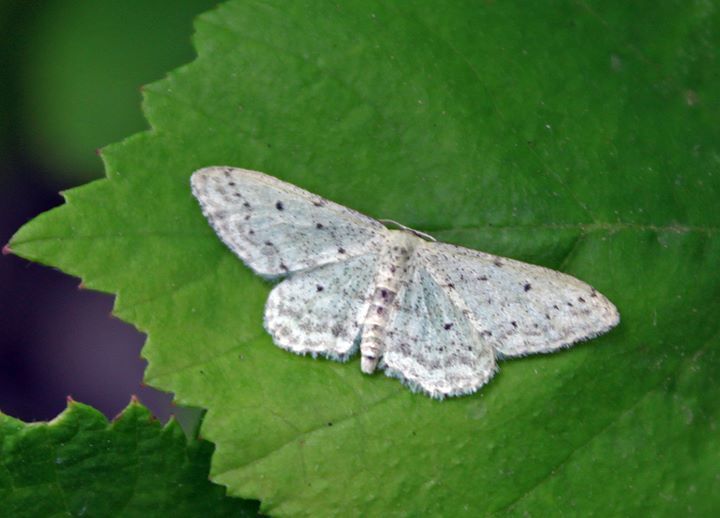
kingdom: Animalia
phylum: Arthropoda
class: Insecta
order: Lepidoptera
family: Geometridae
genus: Idaea
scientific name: Idaea seriata
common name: Small dusty wave
